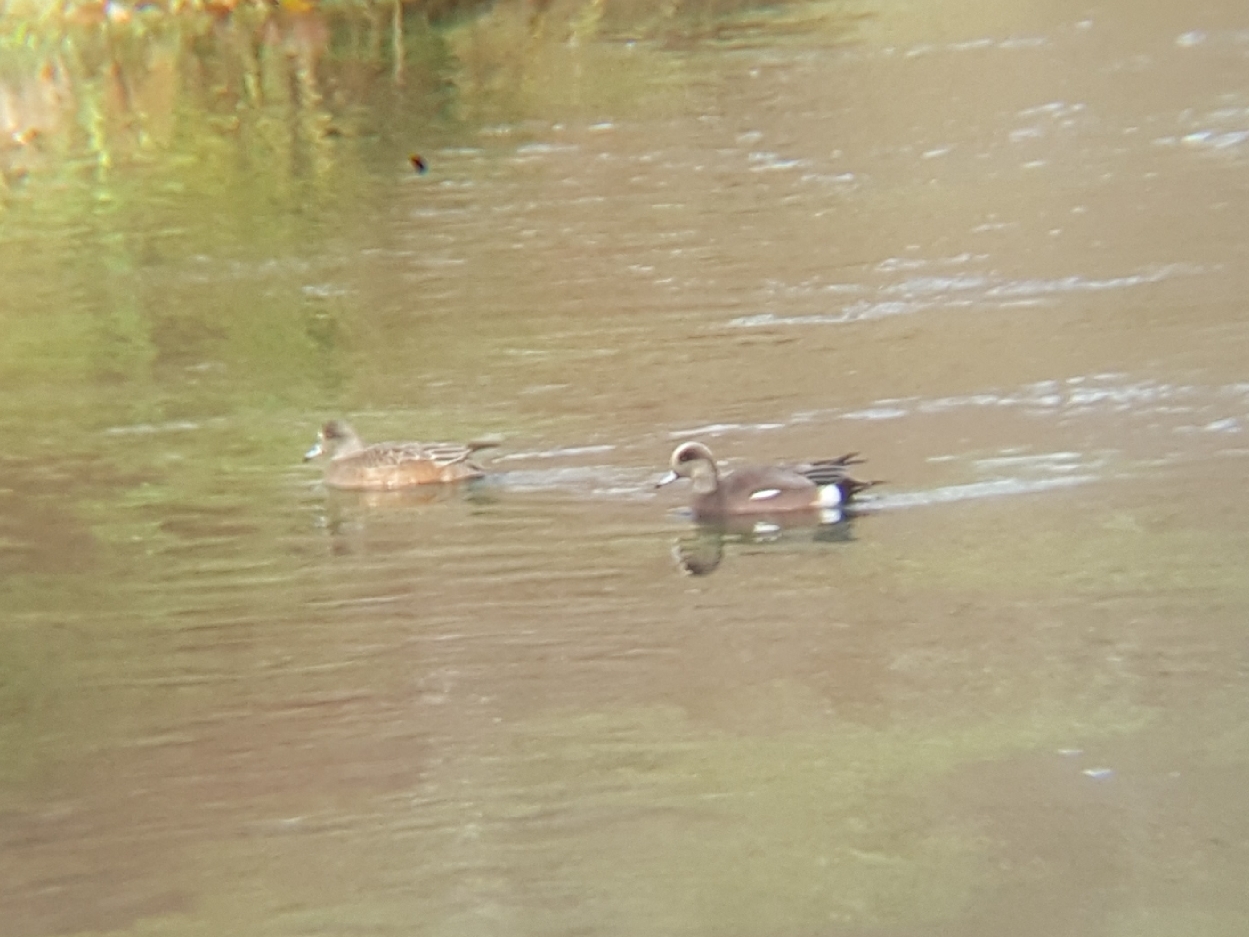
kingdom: Animalia
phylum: Chordata
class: Aves
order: Anseriformes
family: Anatidae
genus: Mareca
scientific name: Mareca americana
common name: American wigeon
